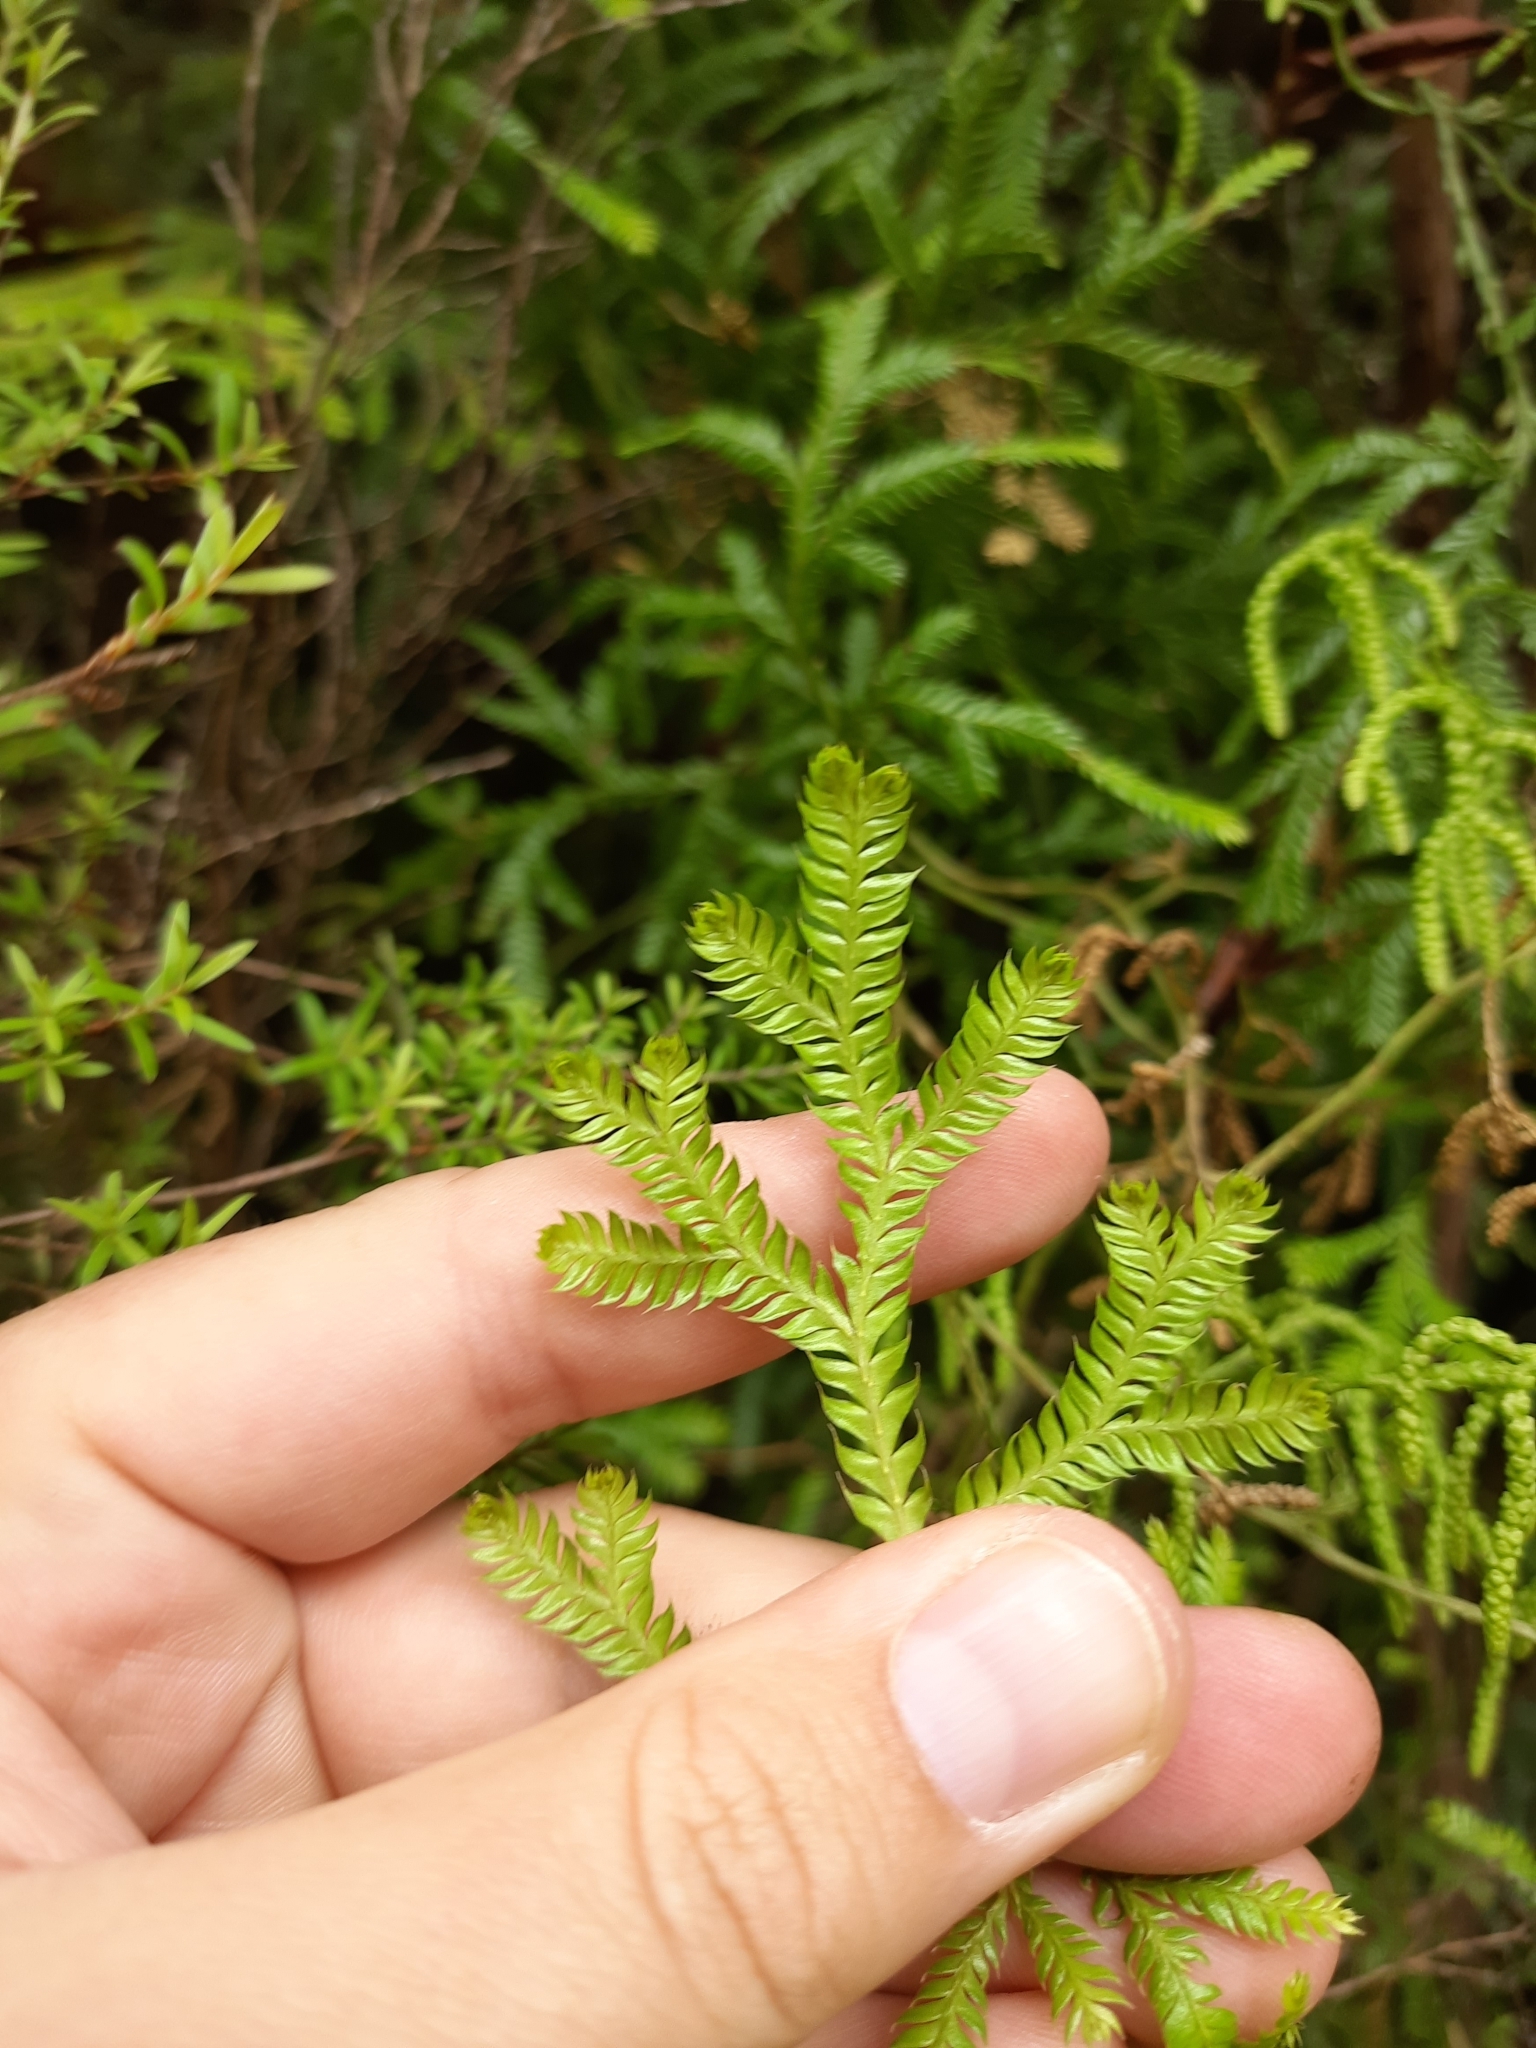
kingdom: Plantae
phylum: Tracheophyta
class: Lycopodiopsida
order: Lycopodiales
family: Lycopodiaceae
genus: Lycopodium
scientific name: Lycopodium volubile
